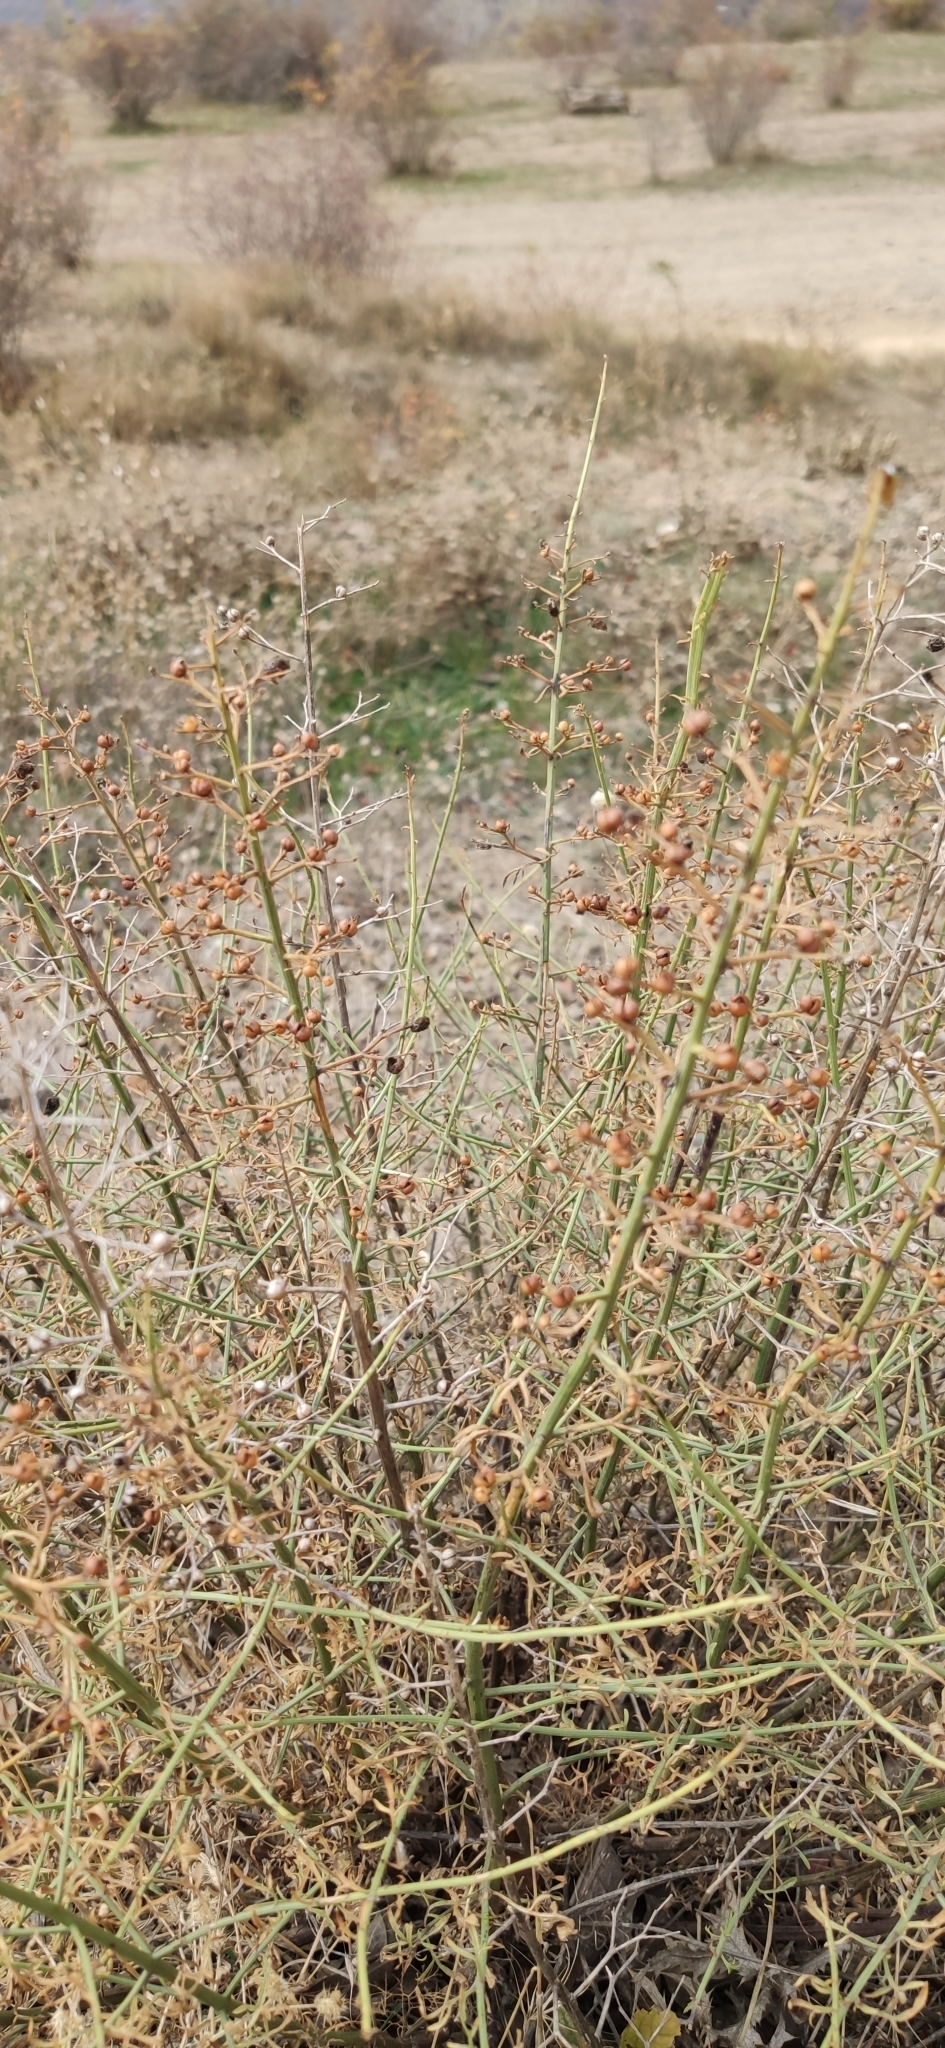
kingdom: Plantae
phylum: Tracheophyta
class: Magnoliopsida
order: Lamiales
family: Scrophulariaceae
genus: Scrophularia
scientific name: Scrophularia canina
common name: French figwort
